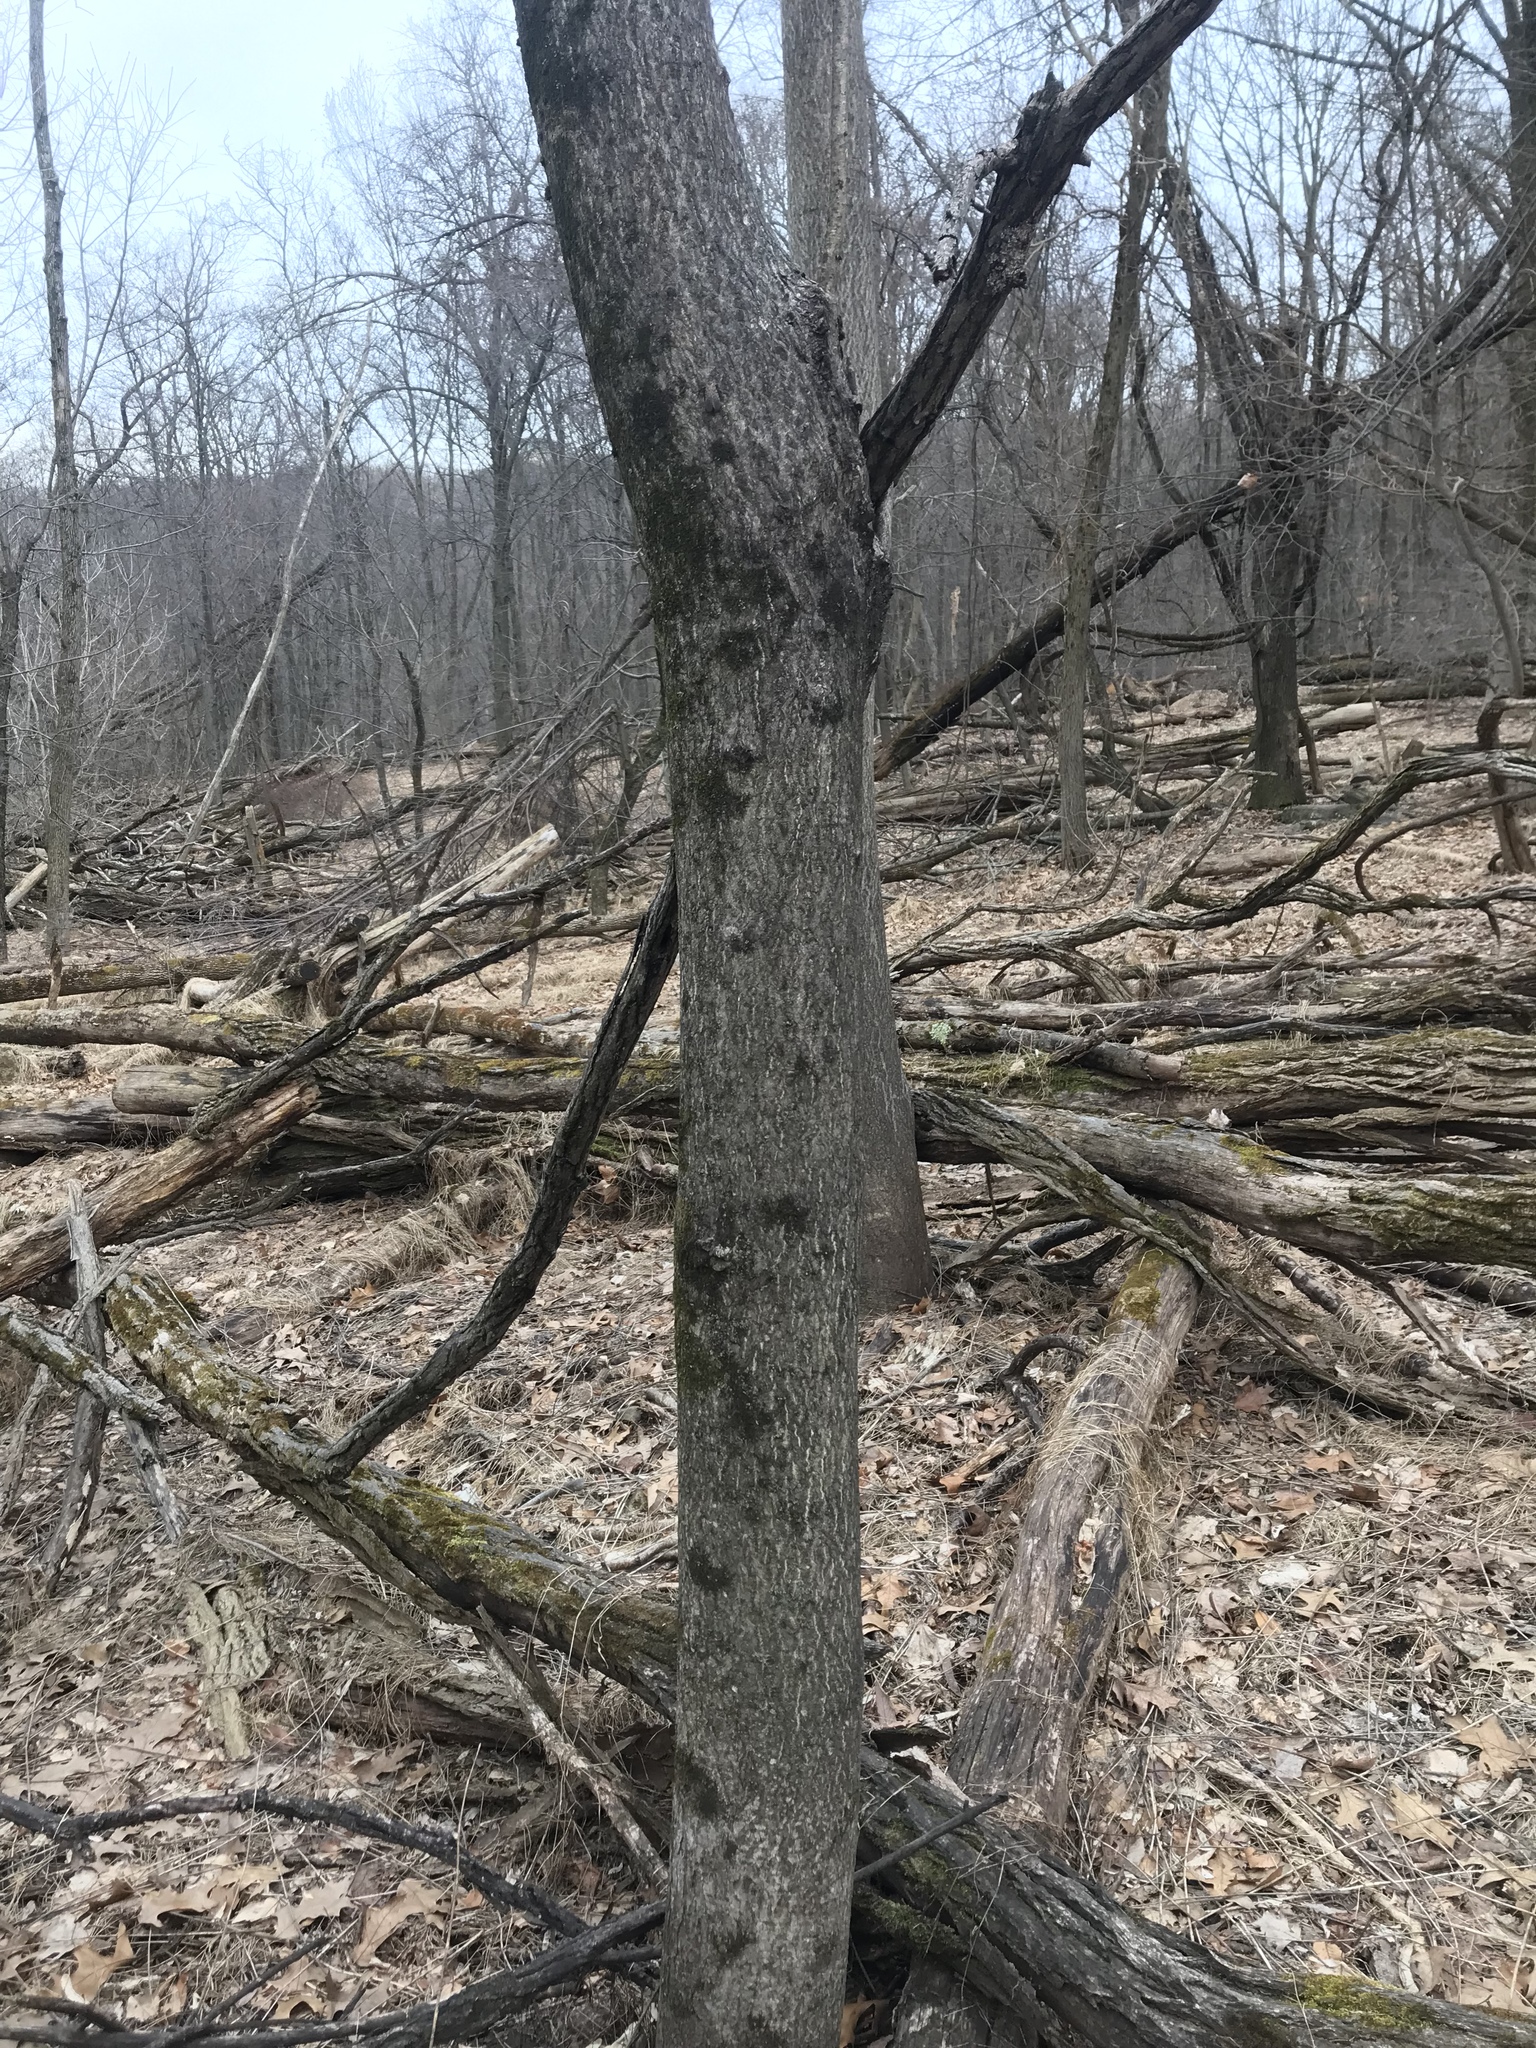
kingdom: Plantae
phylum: Tracheophyta
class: Magnoliopsida
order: Sapindales
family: Simaroubaceae
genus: Ailanthus
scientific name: Ailanthus altissima
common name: Tree-of-heaven
